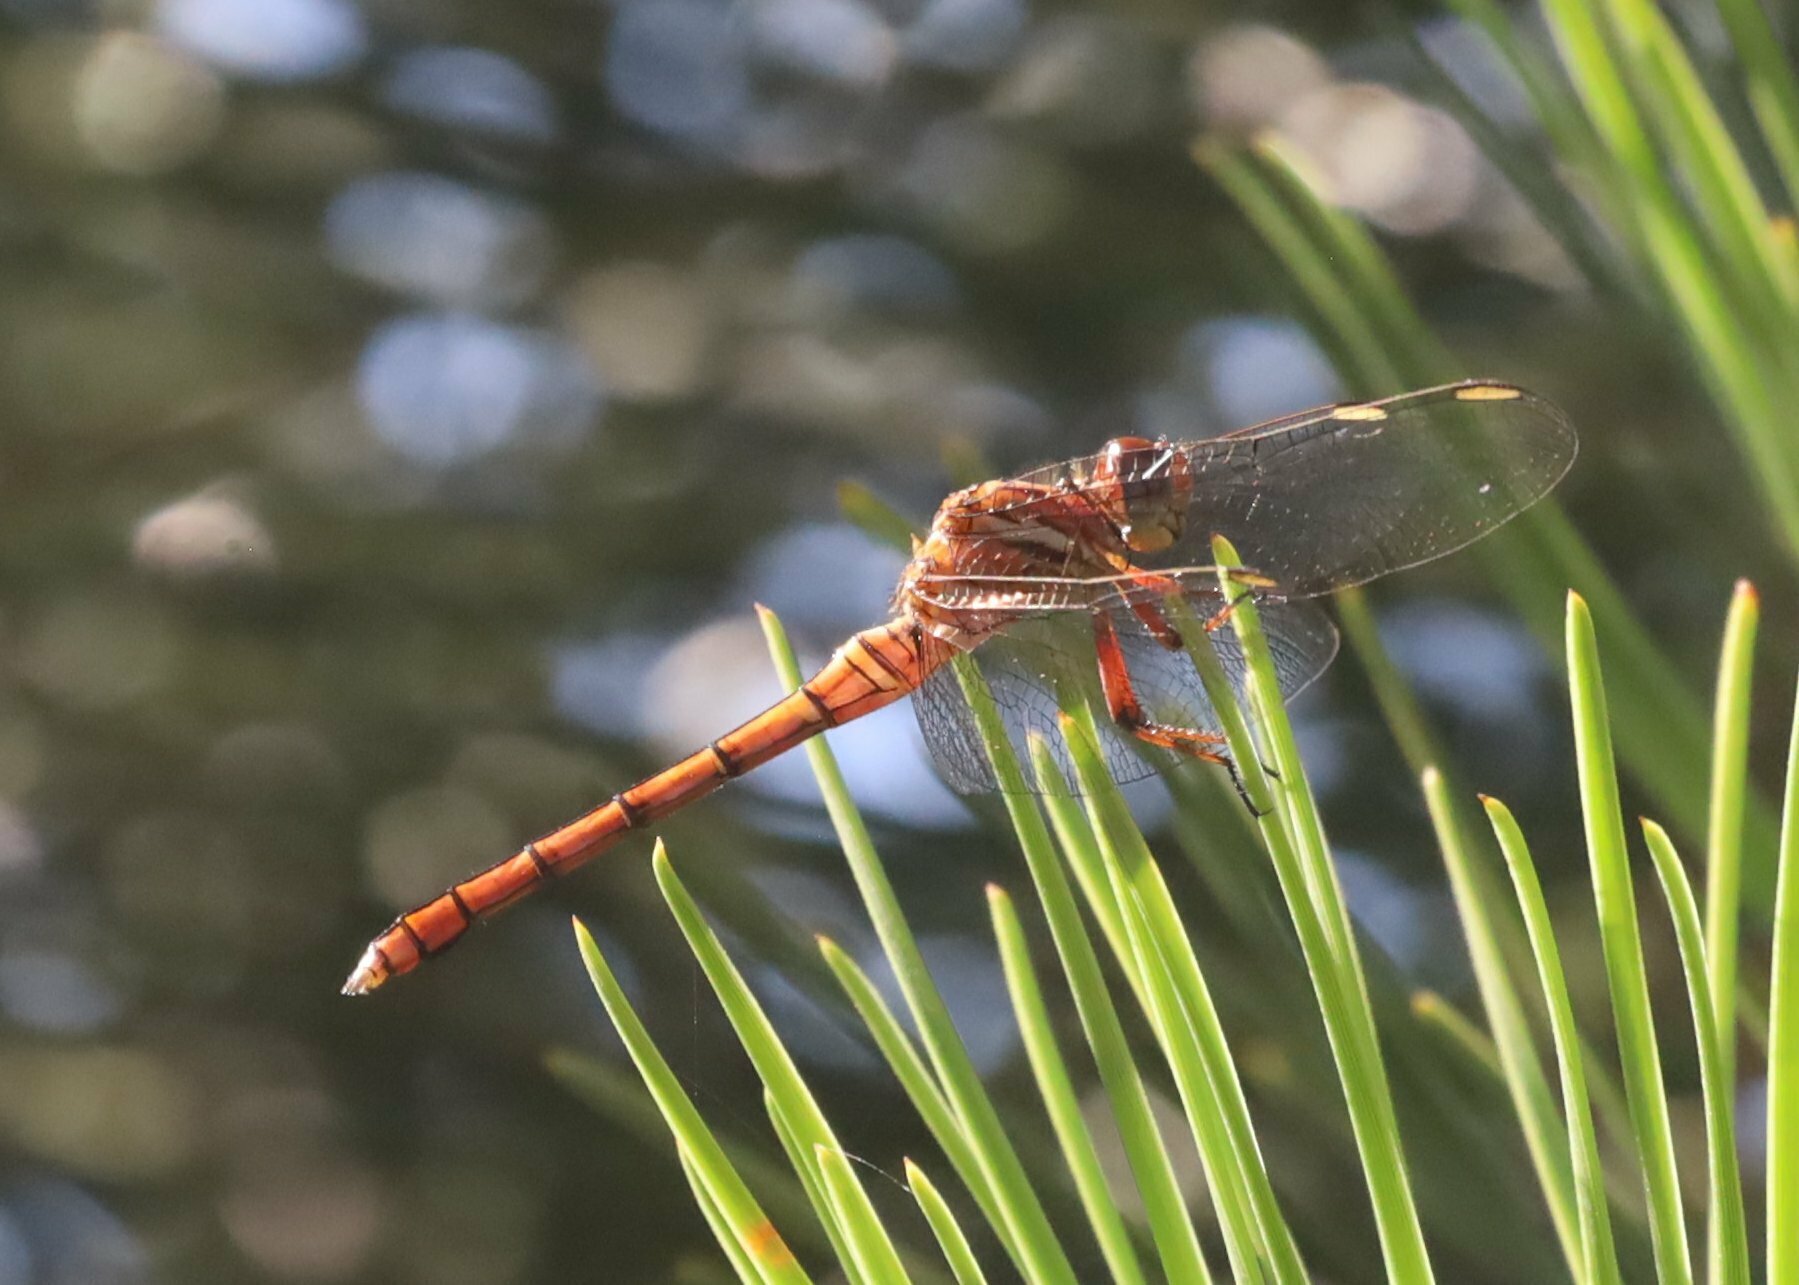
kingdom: Animalia
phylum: Arthropoda
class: Insecta
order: Odonata
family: Libellulidae
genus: Orthetrum
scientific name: Orthetrum julia
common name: Julia skimmer
